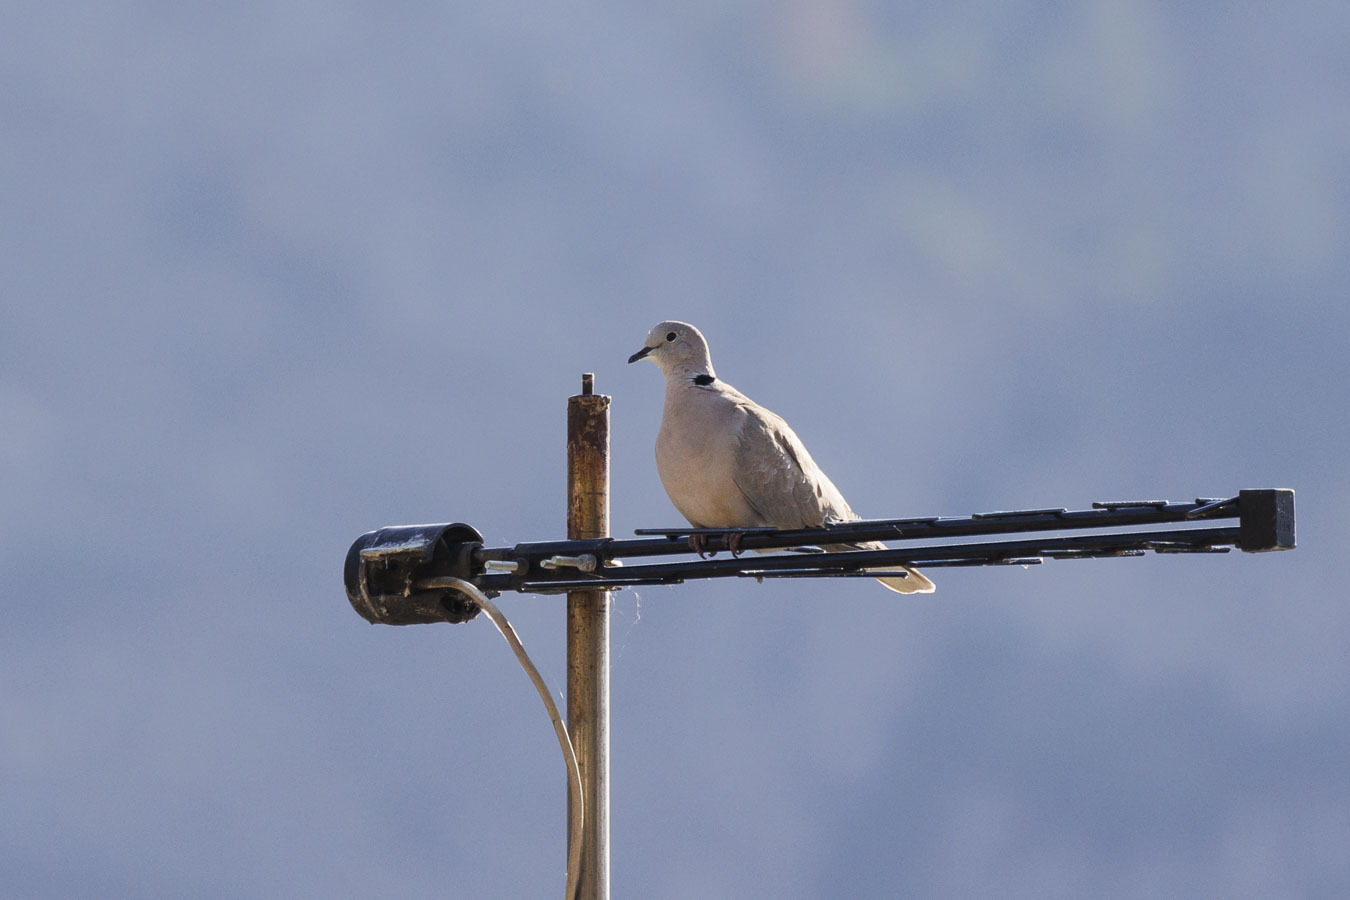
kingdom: Animalia
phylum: Chordata
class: Aves
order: Columbiformes
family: Columbidae
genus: Streptopelia
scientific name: Streptopelia decaocto
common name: Eurasian collared dove
